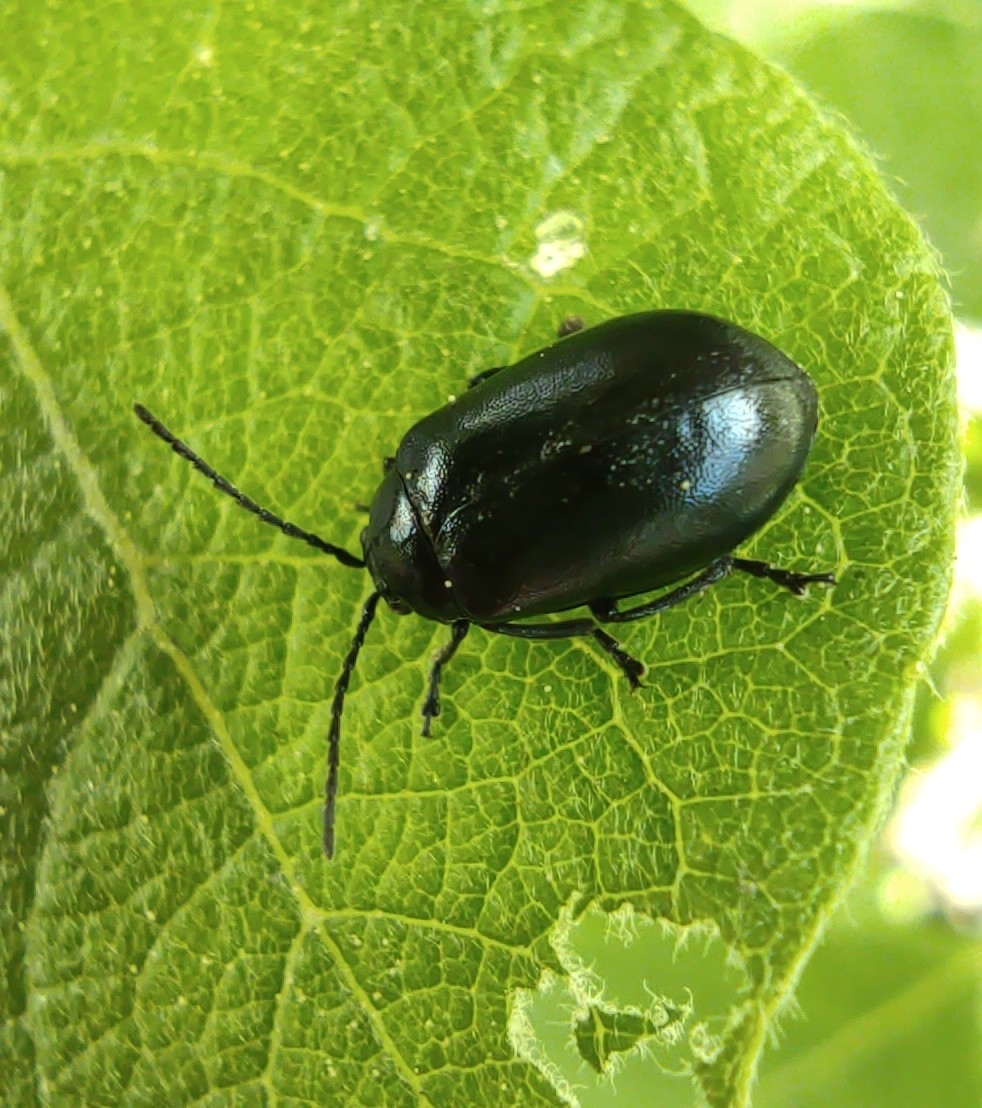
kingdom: Animalia
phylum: Arthropoda
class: Insecta
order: Coleoptera
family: Chrysomelidae
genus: Agelastica
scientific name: Agelastica alni
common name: Alder leaf beetle
